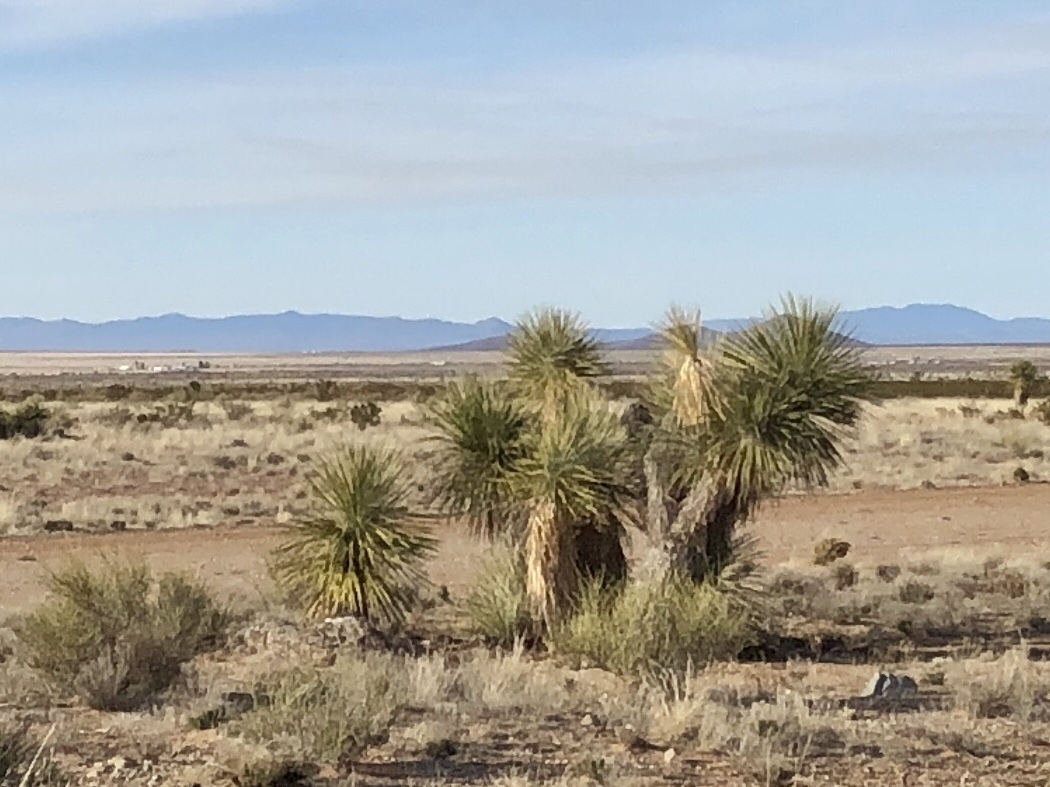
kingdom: Plantae
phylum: Tracheophyta
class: Liliopsida
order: Asparagales
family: Asparagaceae
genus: Yucca
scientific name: Yucca elata
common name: Palmella
